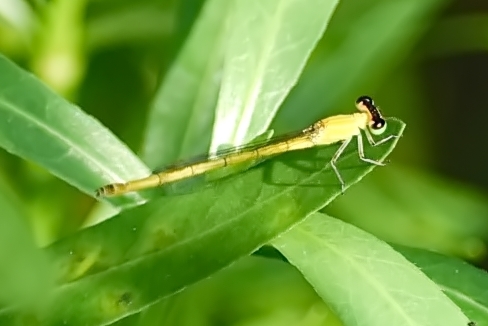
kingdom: Animalia
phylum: Arthropoda
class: Insecta
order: Odonata
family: Coenagrionidae
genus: Agriocnemis
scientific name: Agriocnemis kalinga
